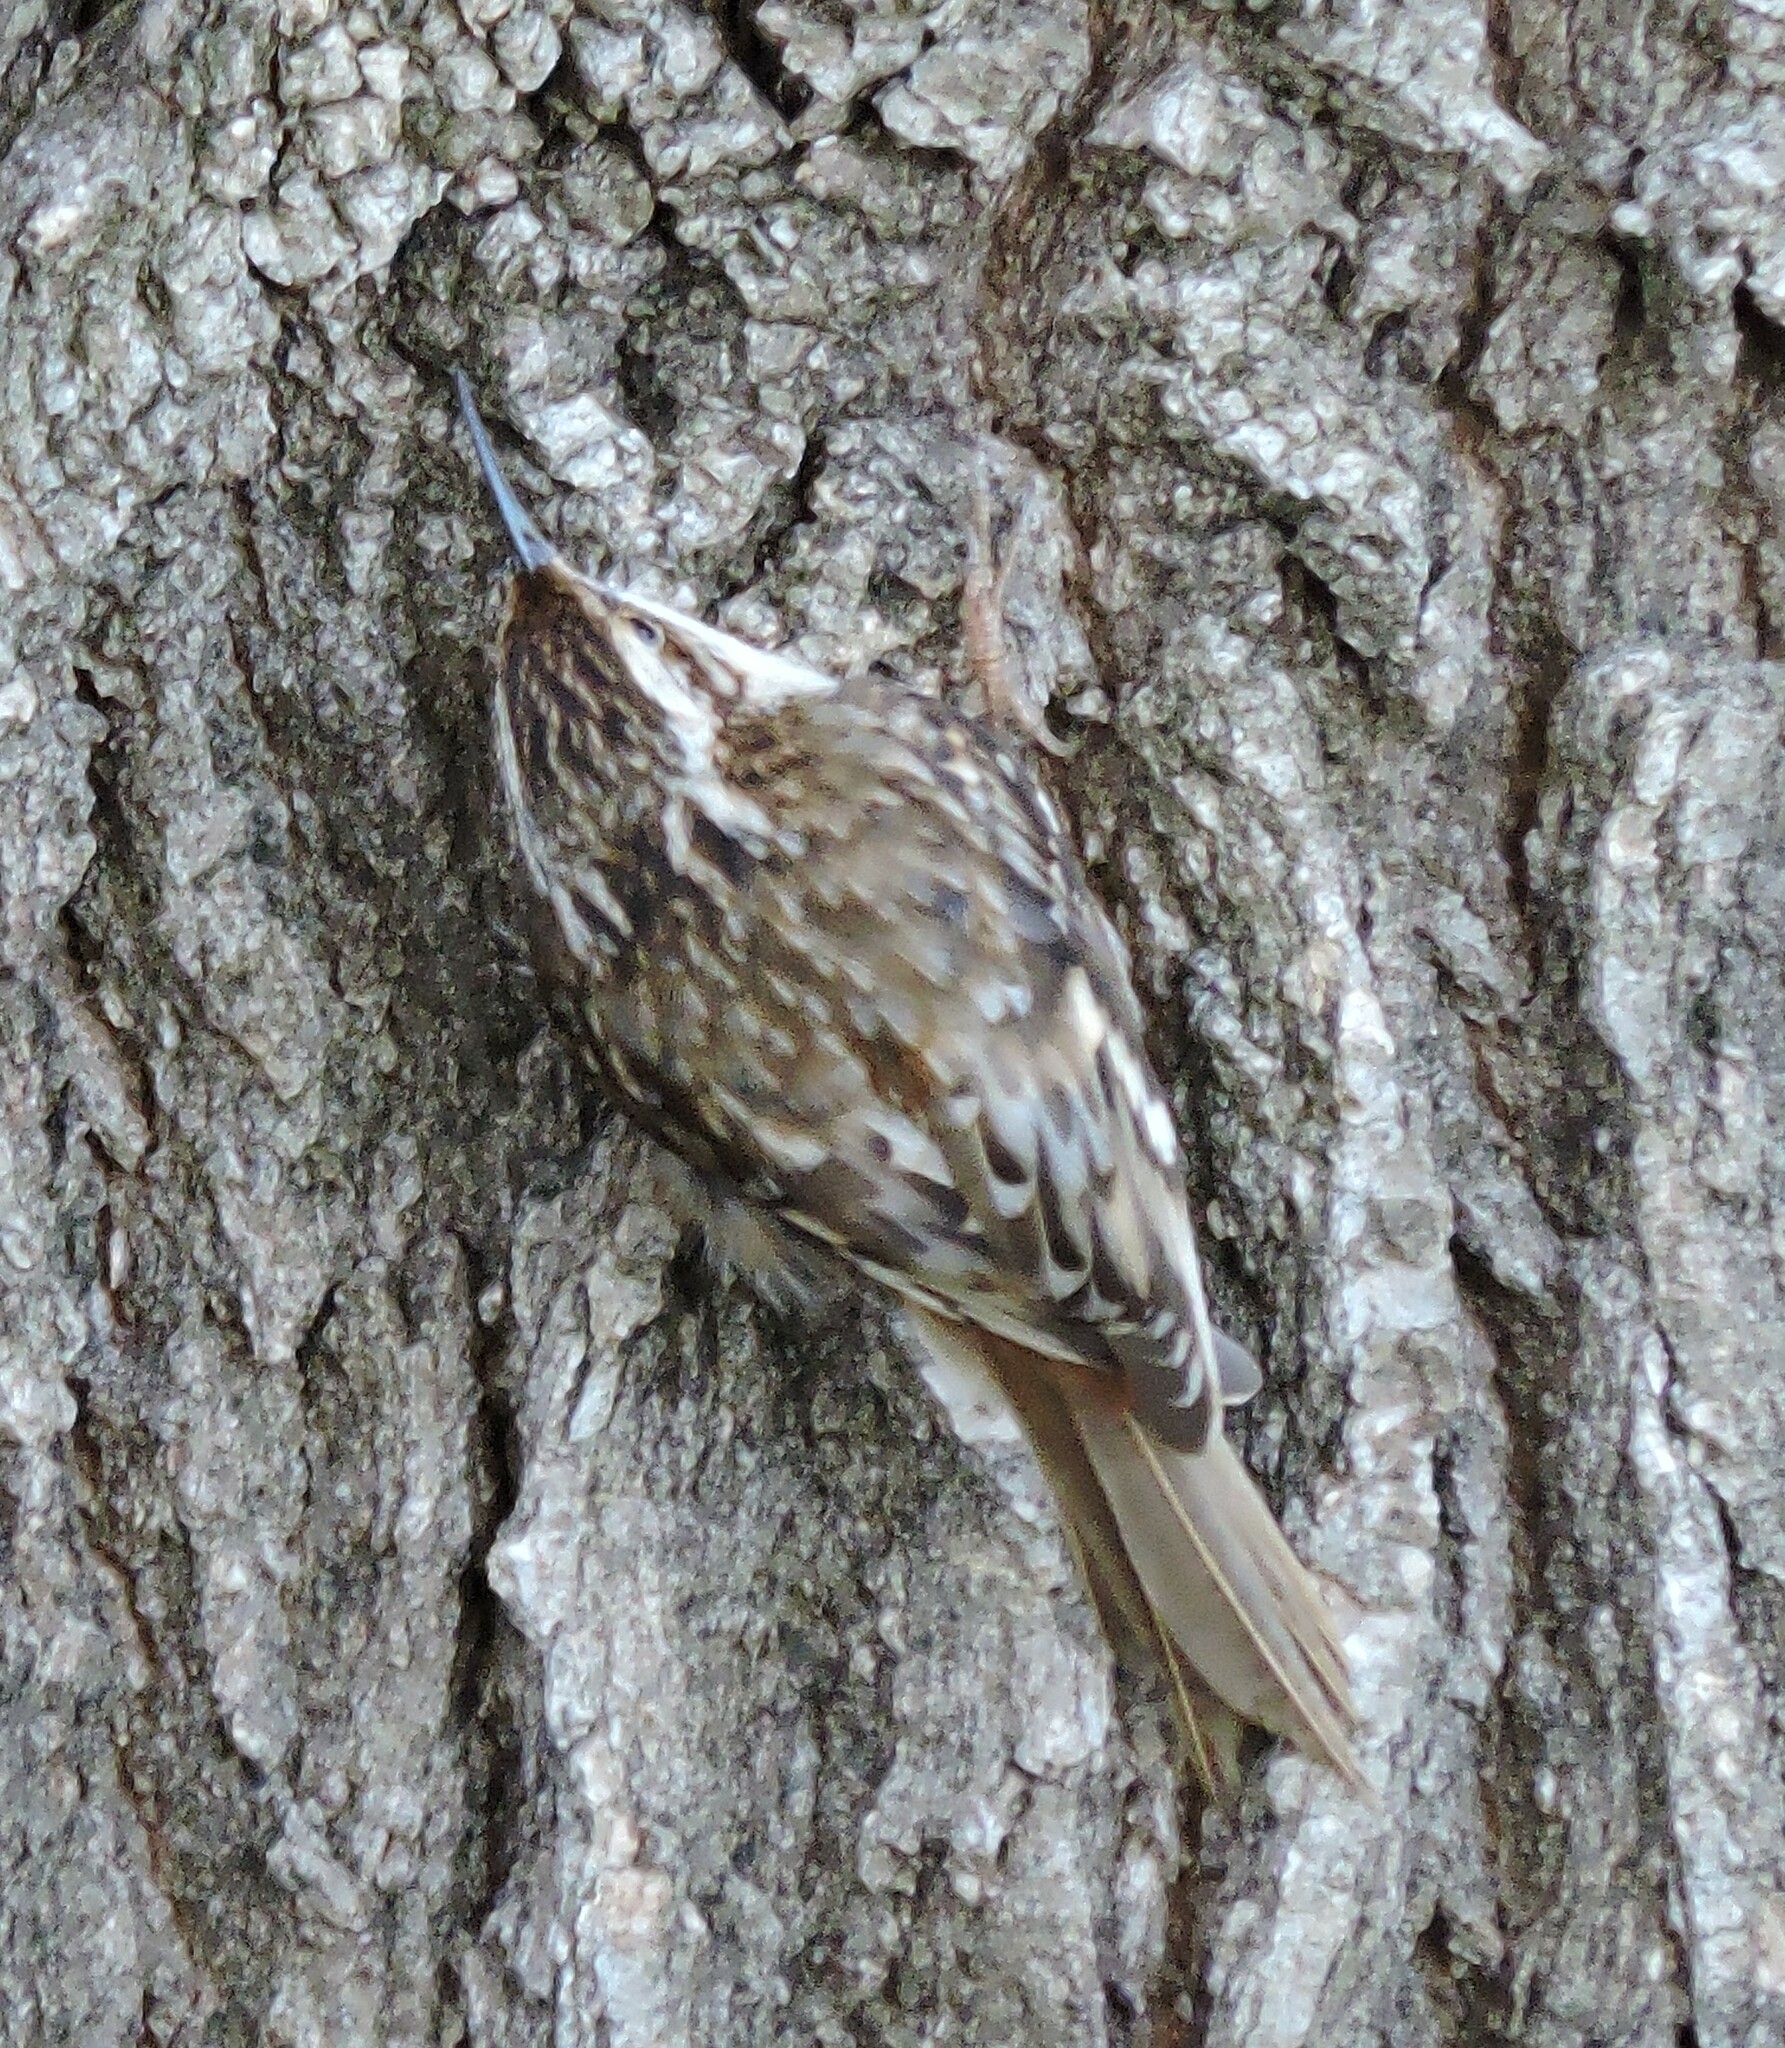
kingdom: Animalia
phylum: Chordata
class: Aves
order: Passeriformes
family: Certhiidae
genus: Certhia
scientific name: Certhia americana
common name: Brown creeper
